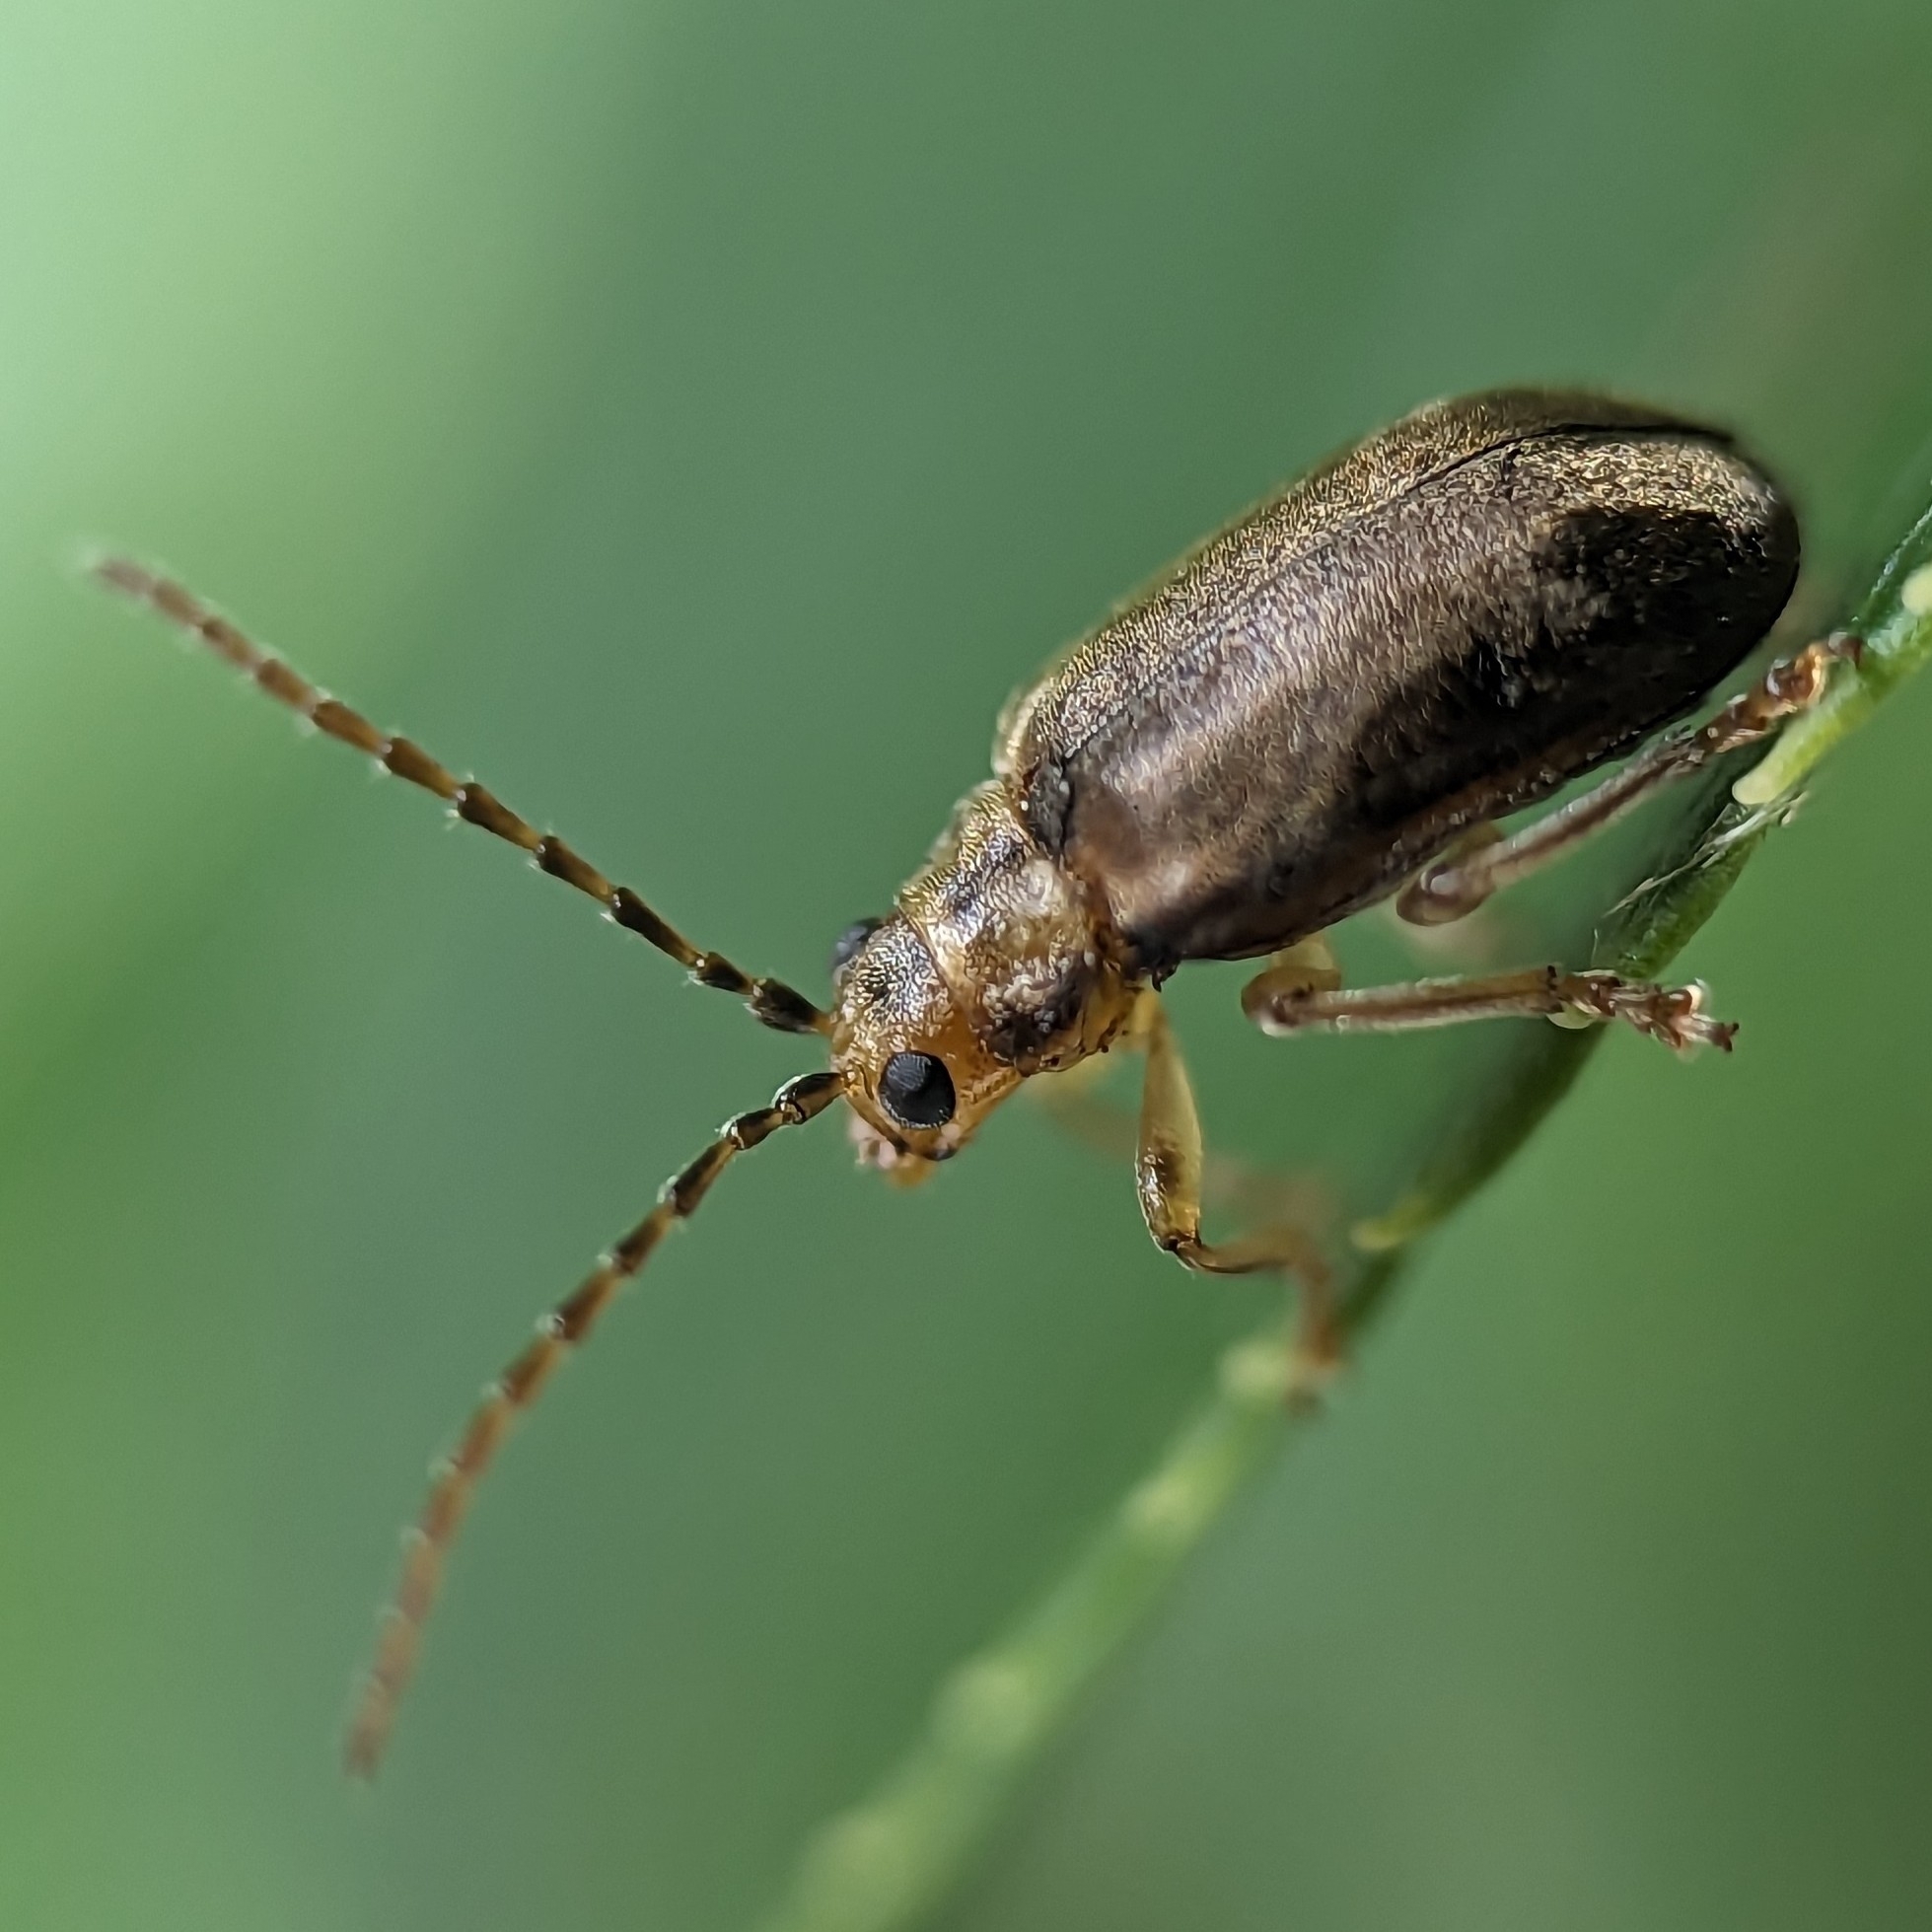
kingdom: Animalia
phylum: Arthropoda
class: Insecta
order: Coleoptera
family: Chrysomelidae
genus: Pyrrhalta
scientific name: Pyrrhalta viburni
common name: Guelder-rose leaf beetle
